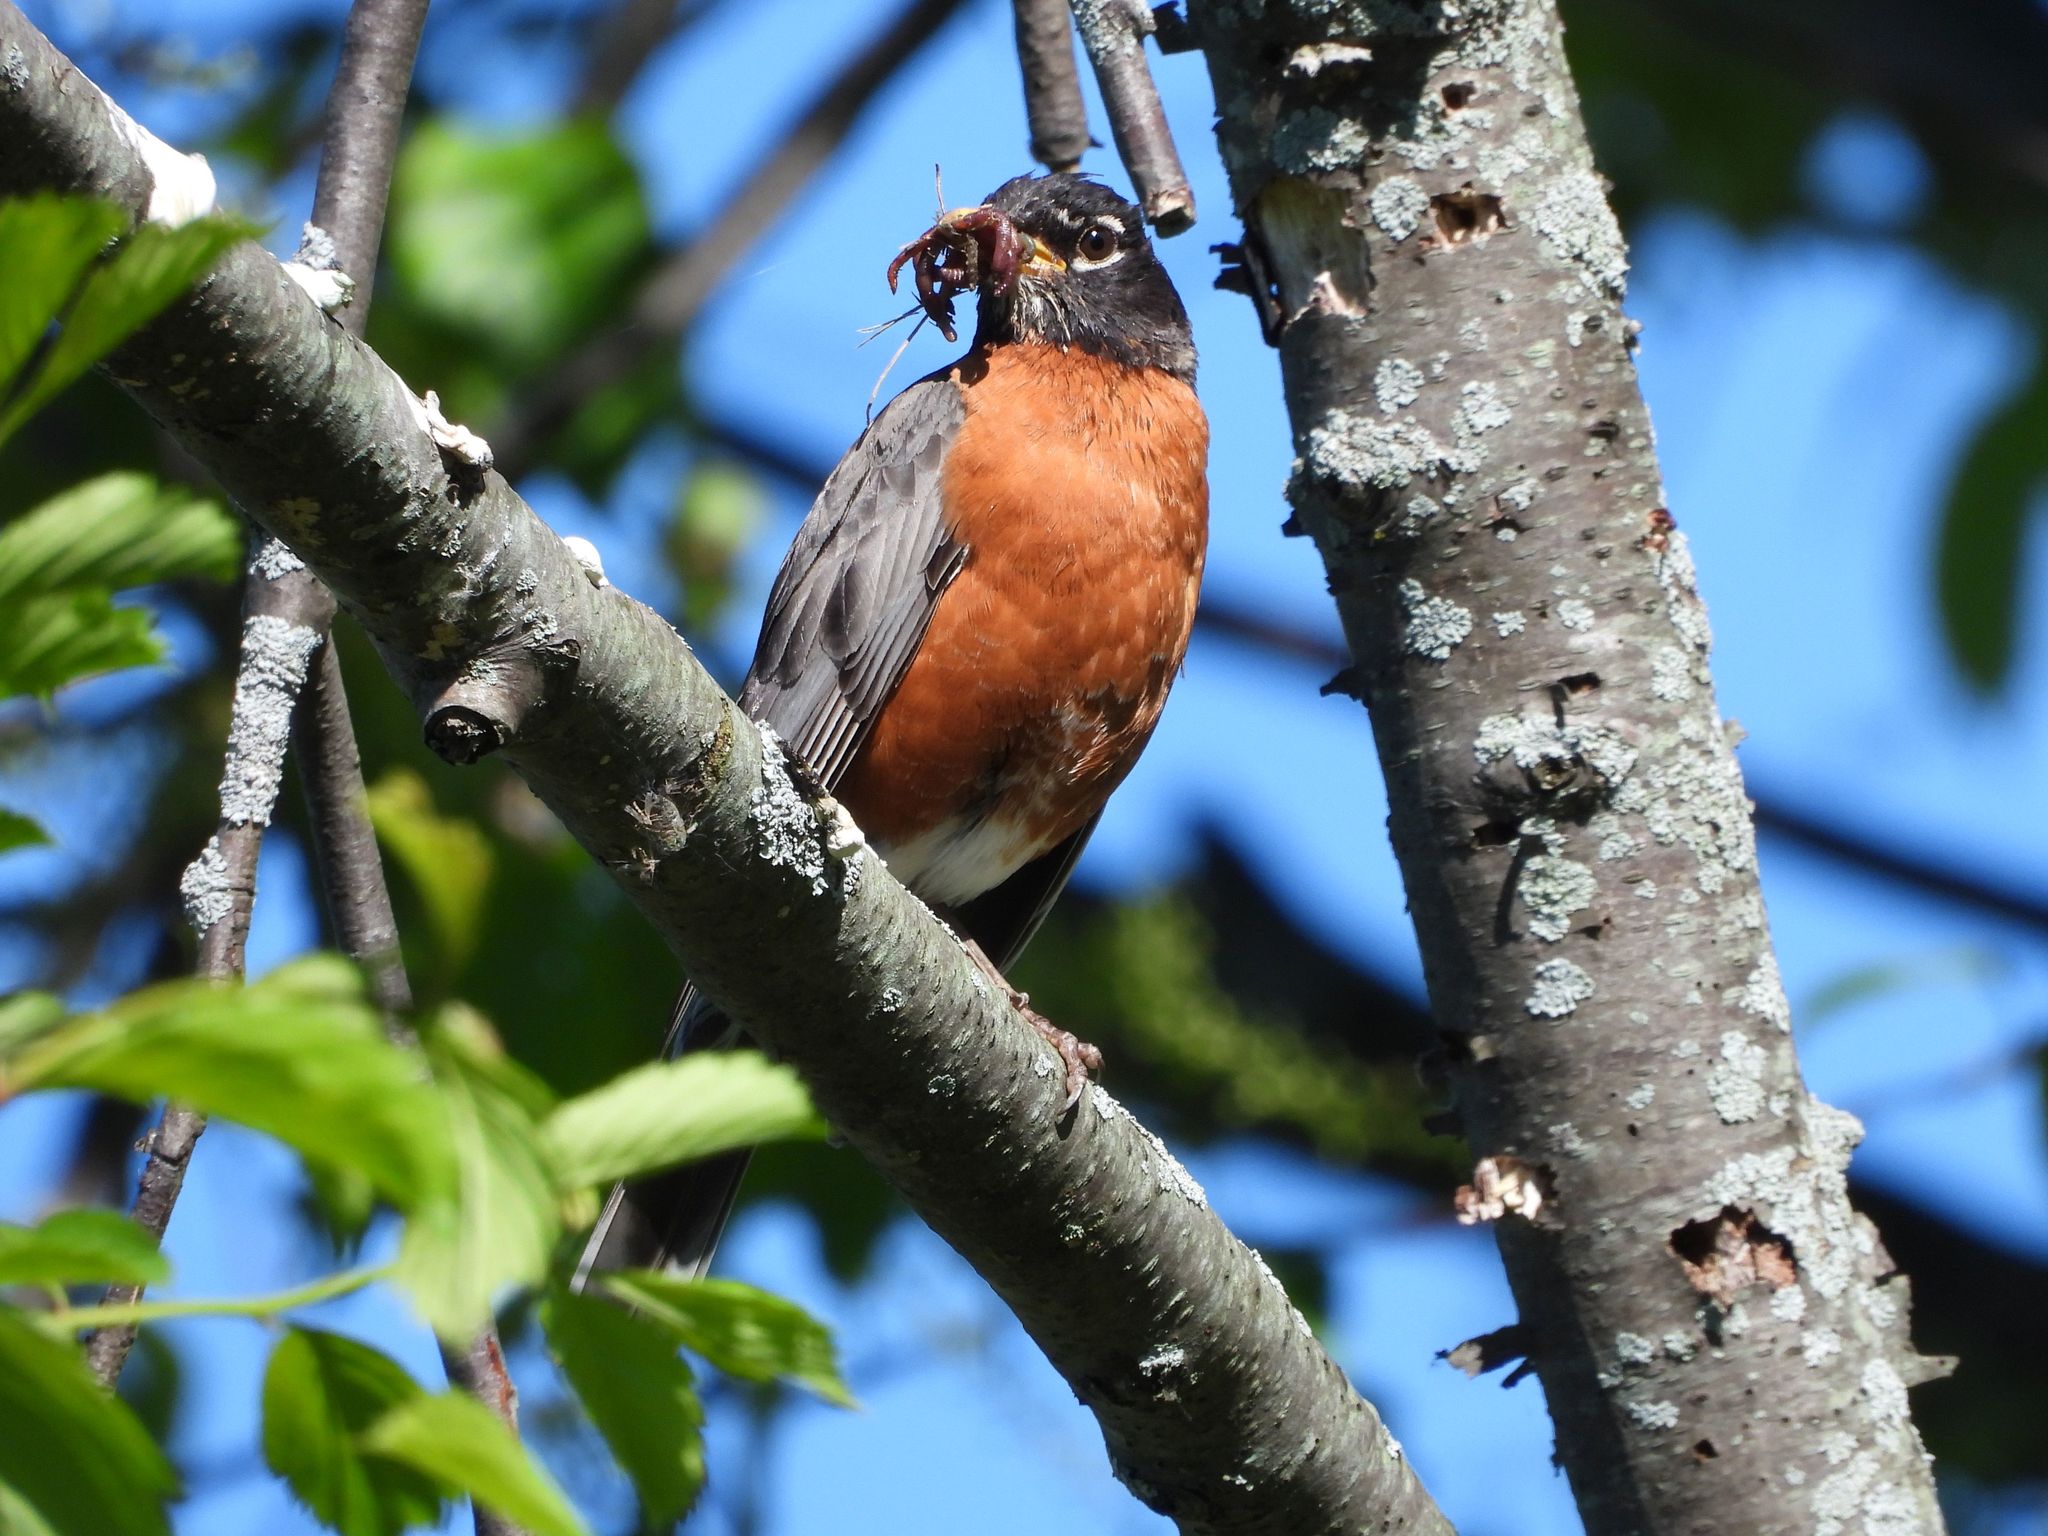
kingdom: Animalia
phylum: Chordata
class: Aves
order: Passeriformes
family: Turdidae
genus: Turdus
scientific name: Turdus migratorius
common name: American robin
